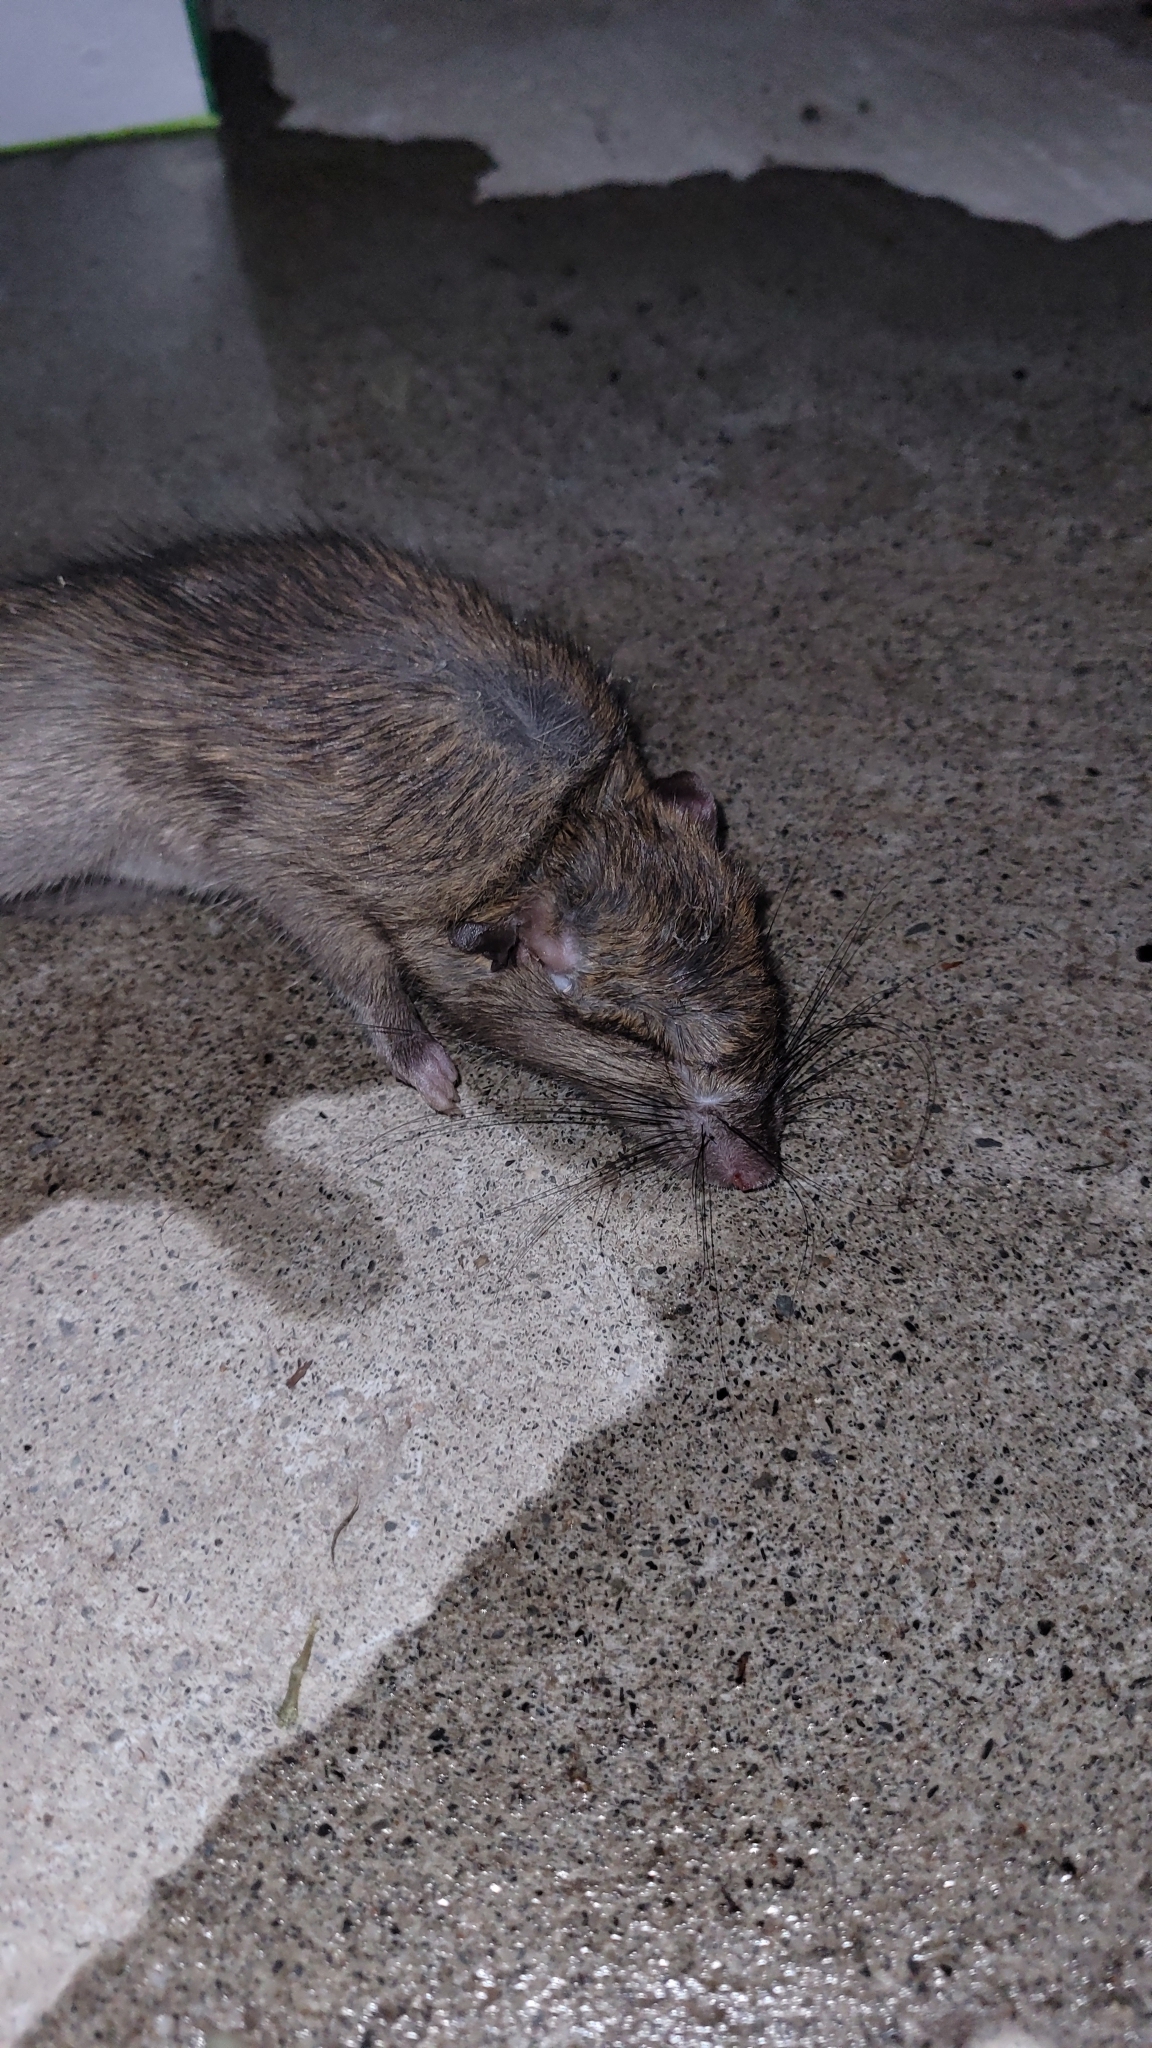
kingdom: Animalia
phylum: Chordata
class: Mammalia
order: Rodentia
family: Muridae
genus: Rattus
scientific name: Rattus rattus
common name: Black rat
